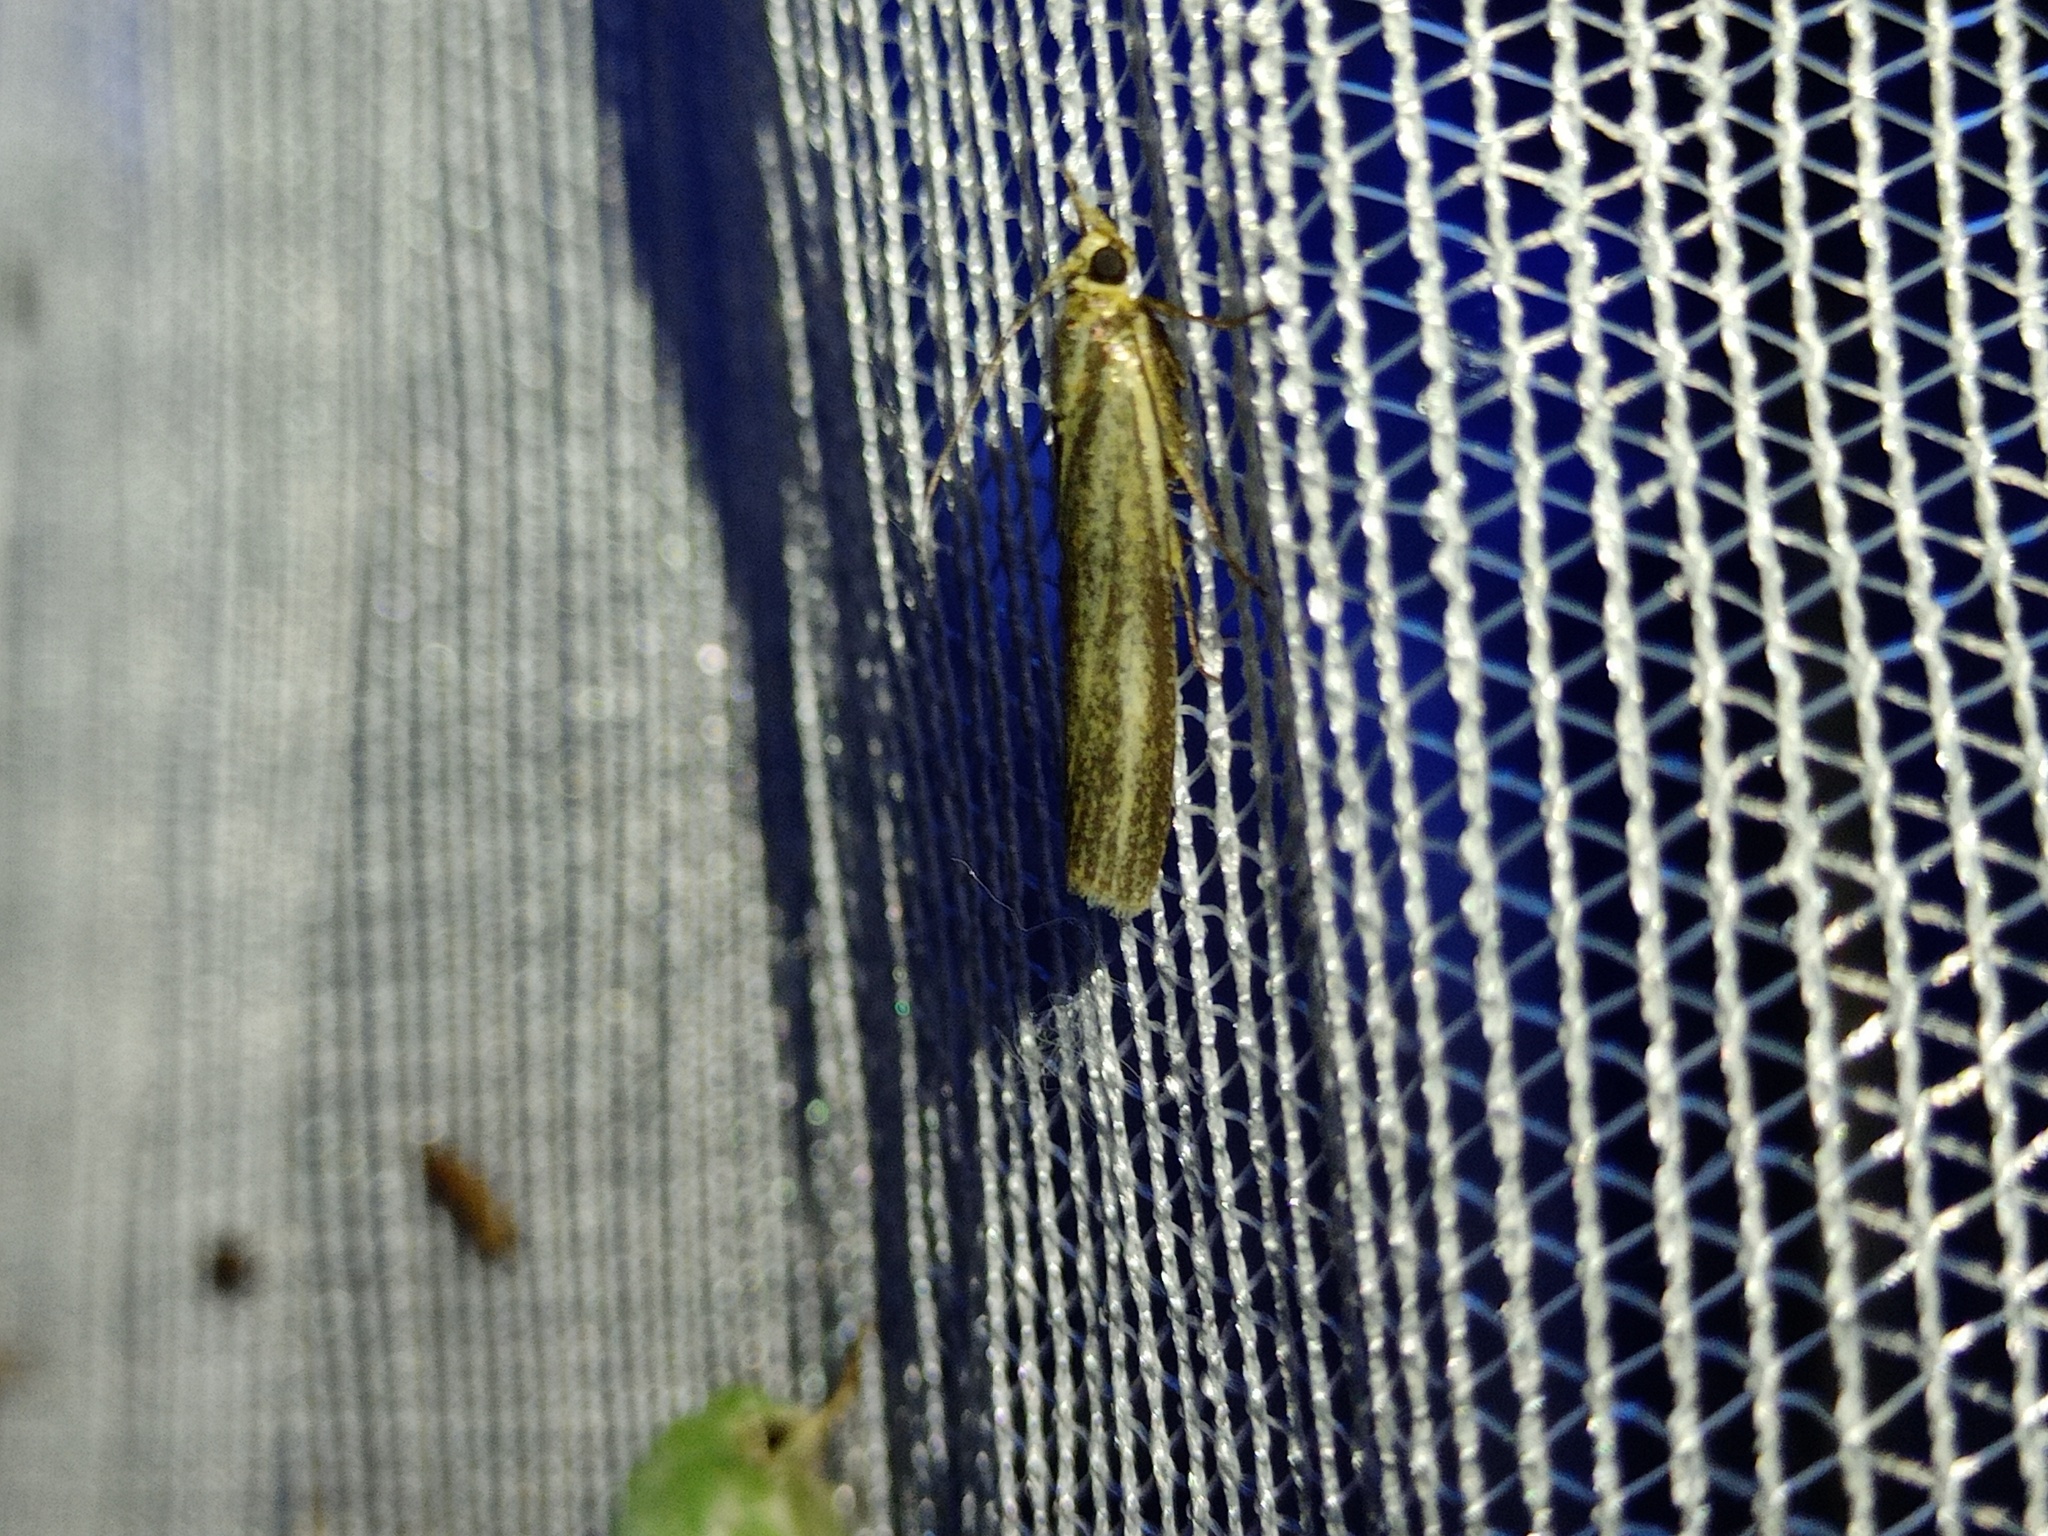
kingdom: Animalia
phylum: Arthropoda
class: Insecta
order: Lepidoptera
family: Pyralidae
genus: Selagia
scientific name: Selagia argyrella
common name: Silvery knot-horn
